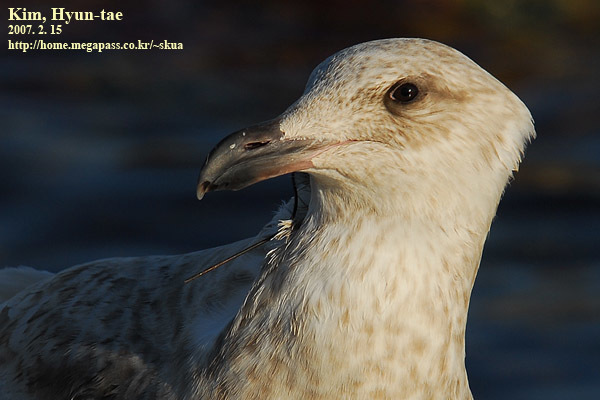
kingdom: Animalia
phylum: Chordata
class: Aves
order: Charadriiformes
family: Laridae
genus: Larus
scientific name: Larus hyperboreus
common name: Glaucous gull
